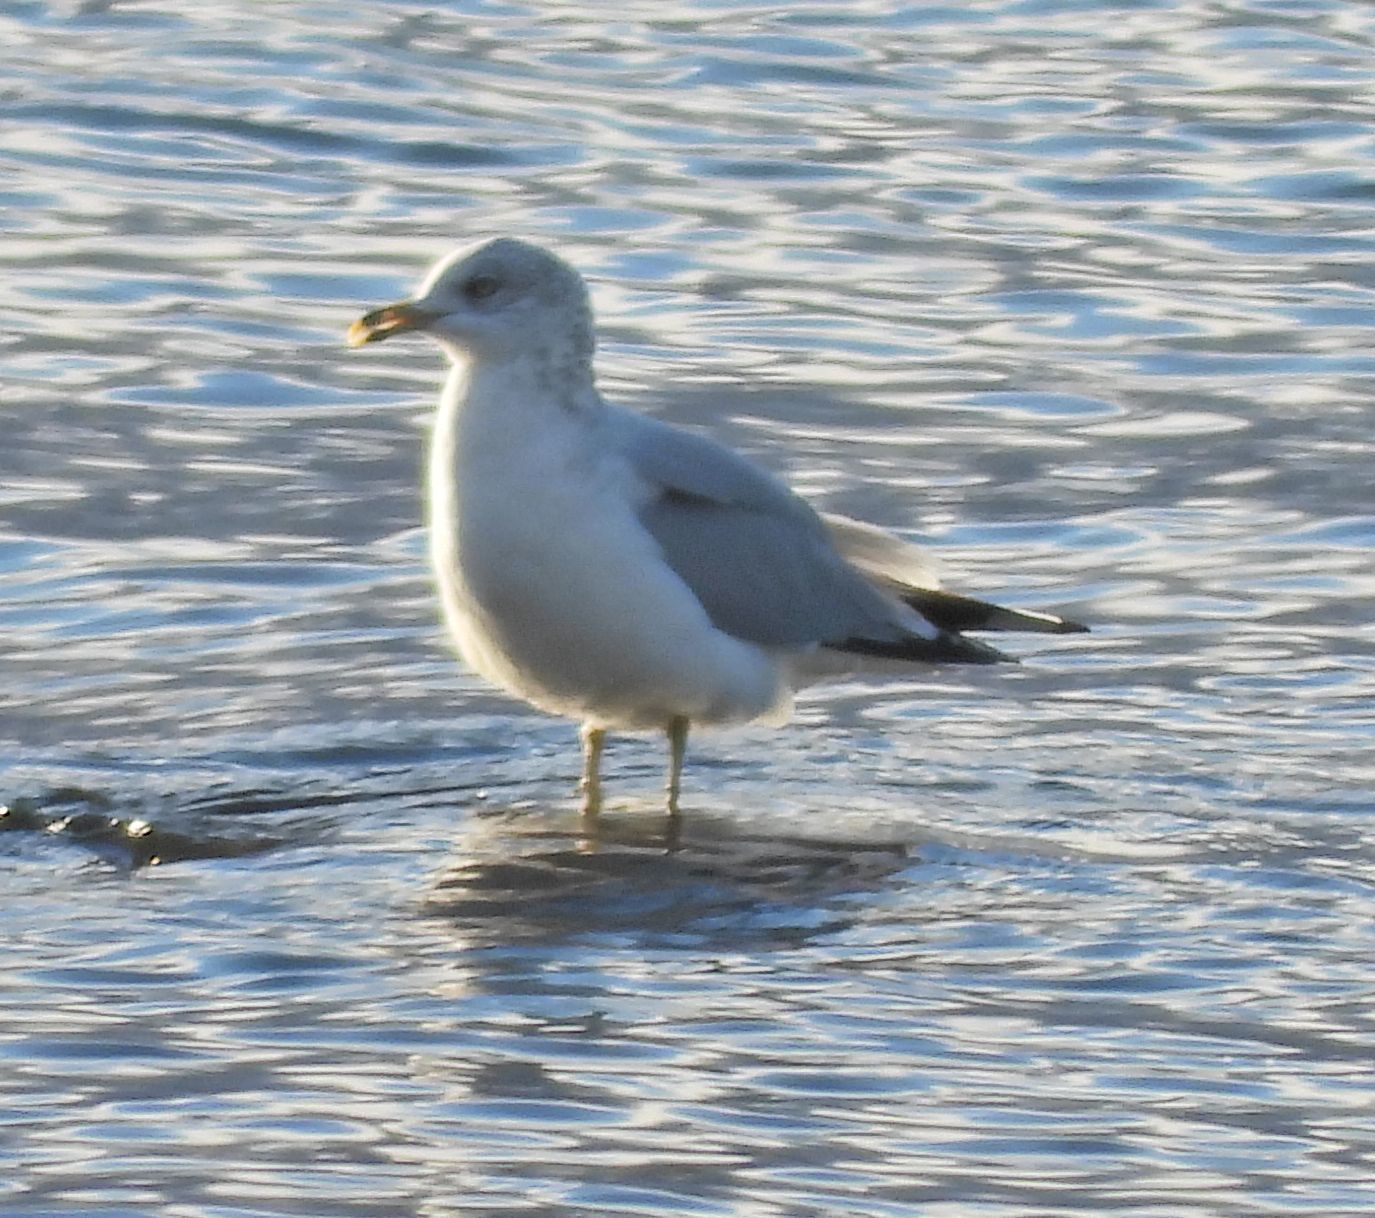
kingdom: Animalia
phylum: Chordata
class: Aves
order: Charadriiformes
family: Laridae
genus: Larus
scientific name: Larus delawarensis
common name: Ring-billed gull
